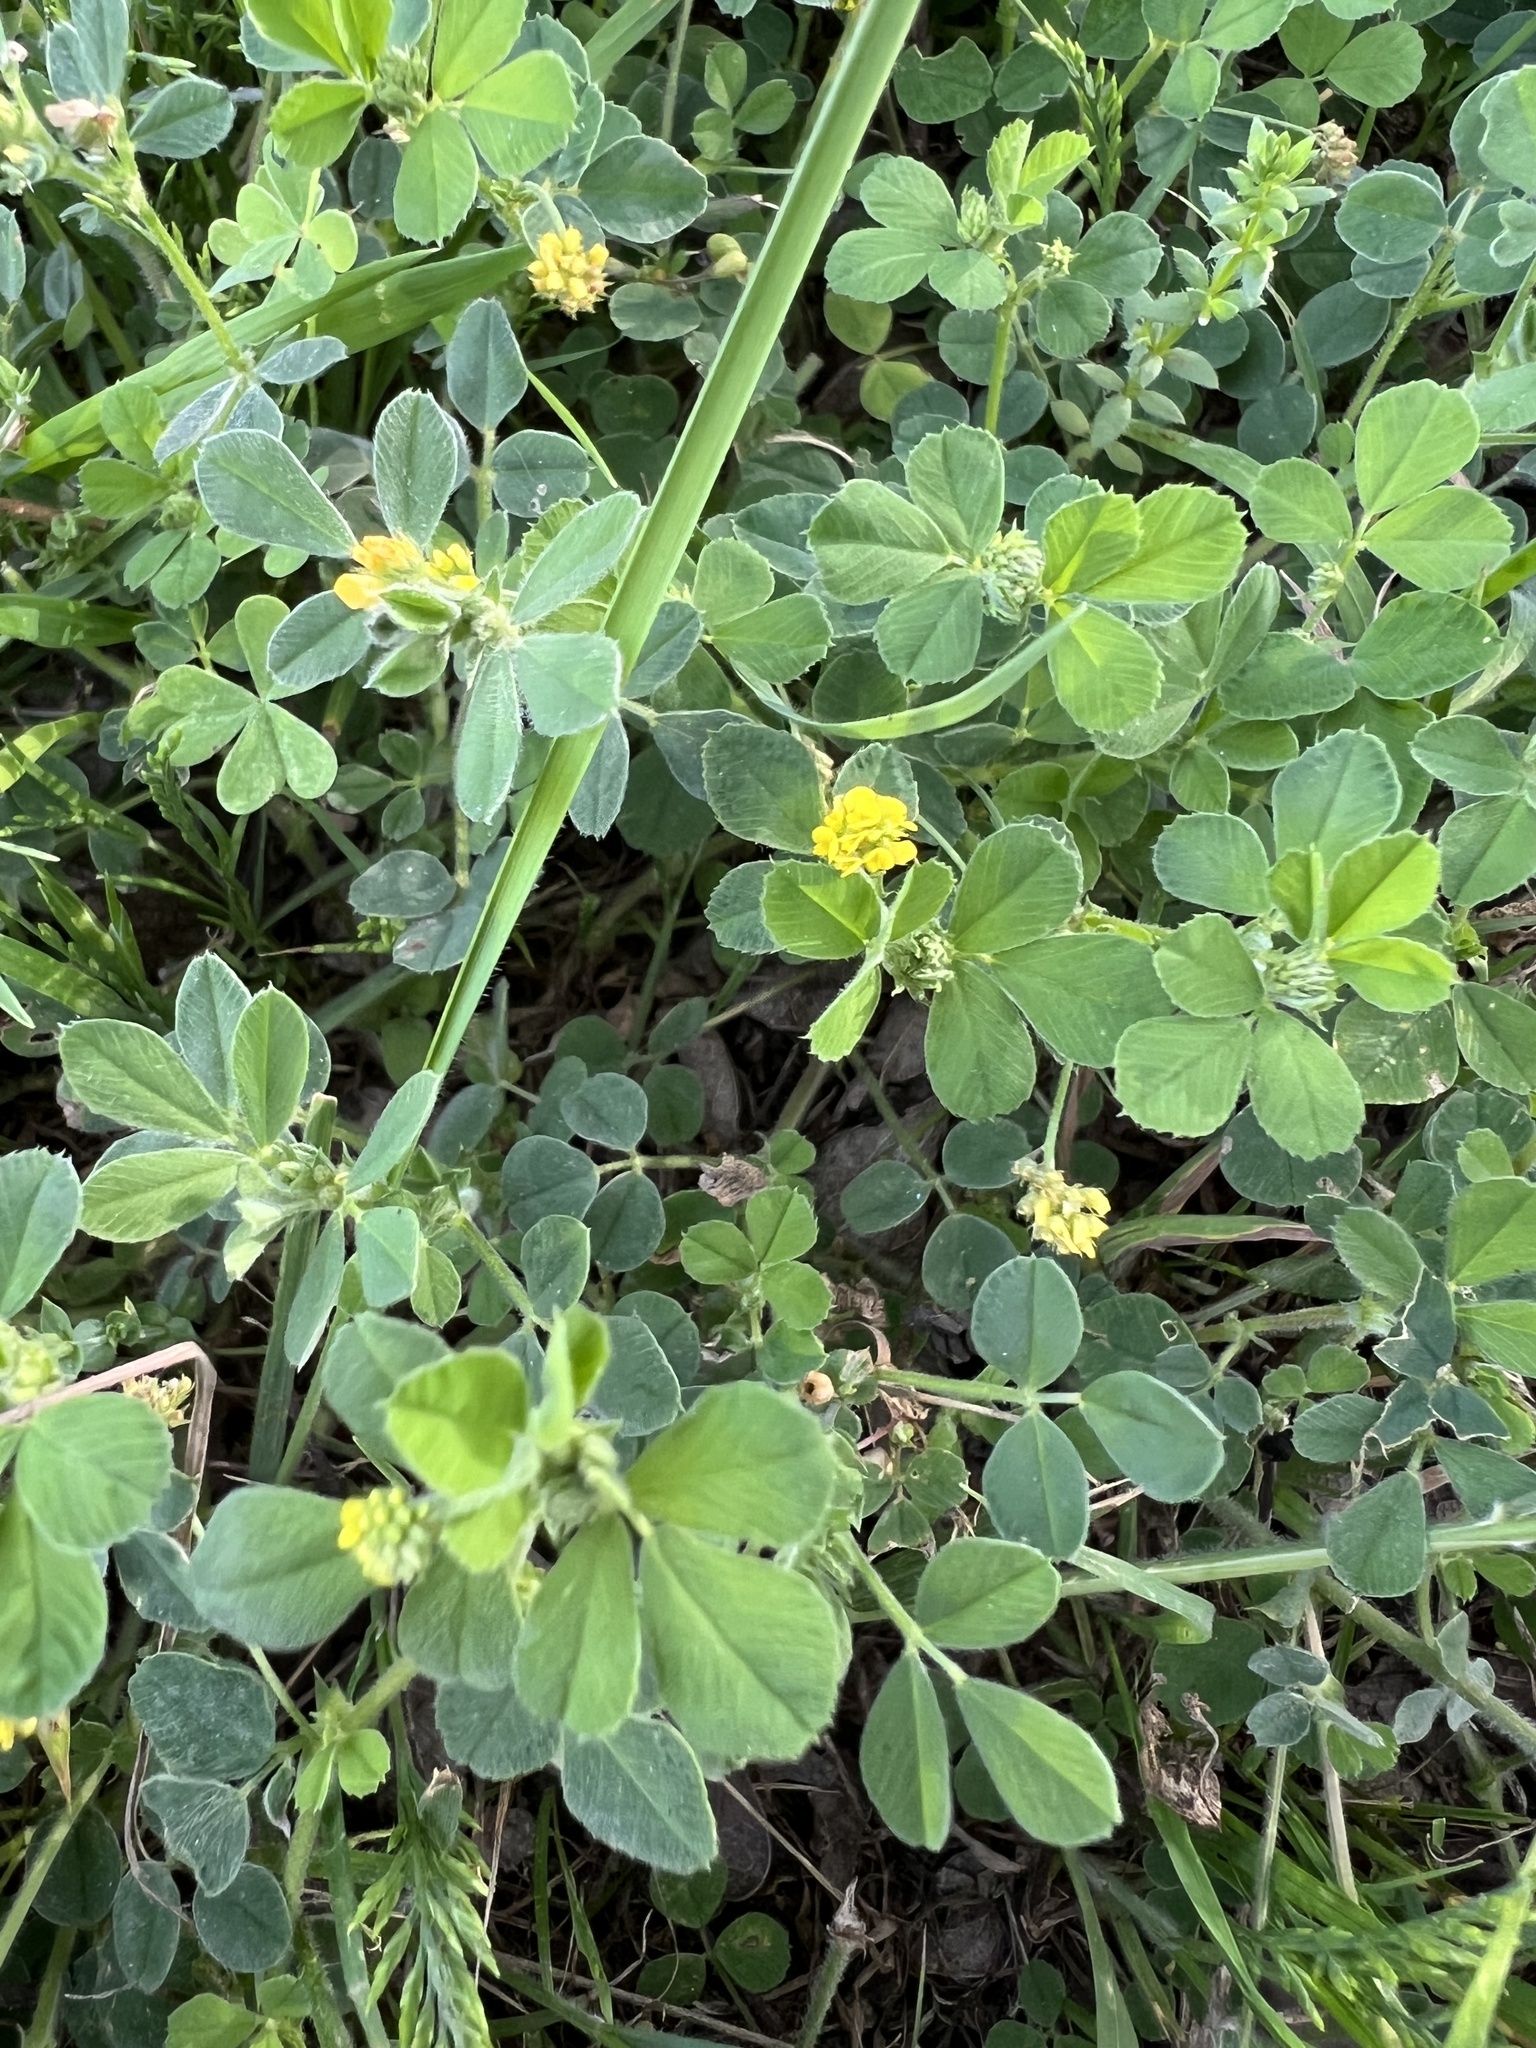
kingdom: Plantae
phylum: Tracheophyta
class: Magnoliopsida
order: Fabales
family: Fabaceae
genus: Medicago
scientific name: Medicago lupulina
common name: Black medick
